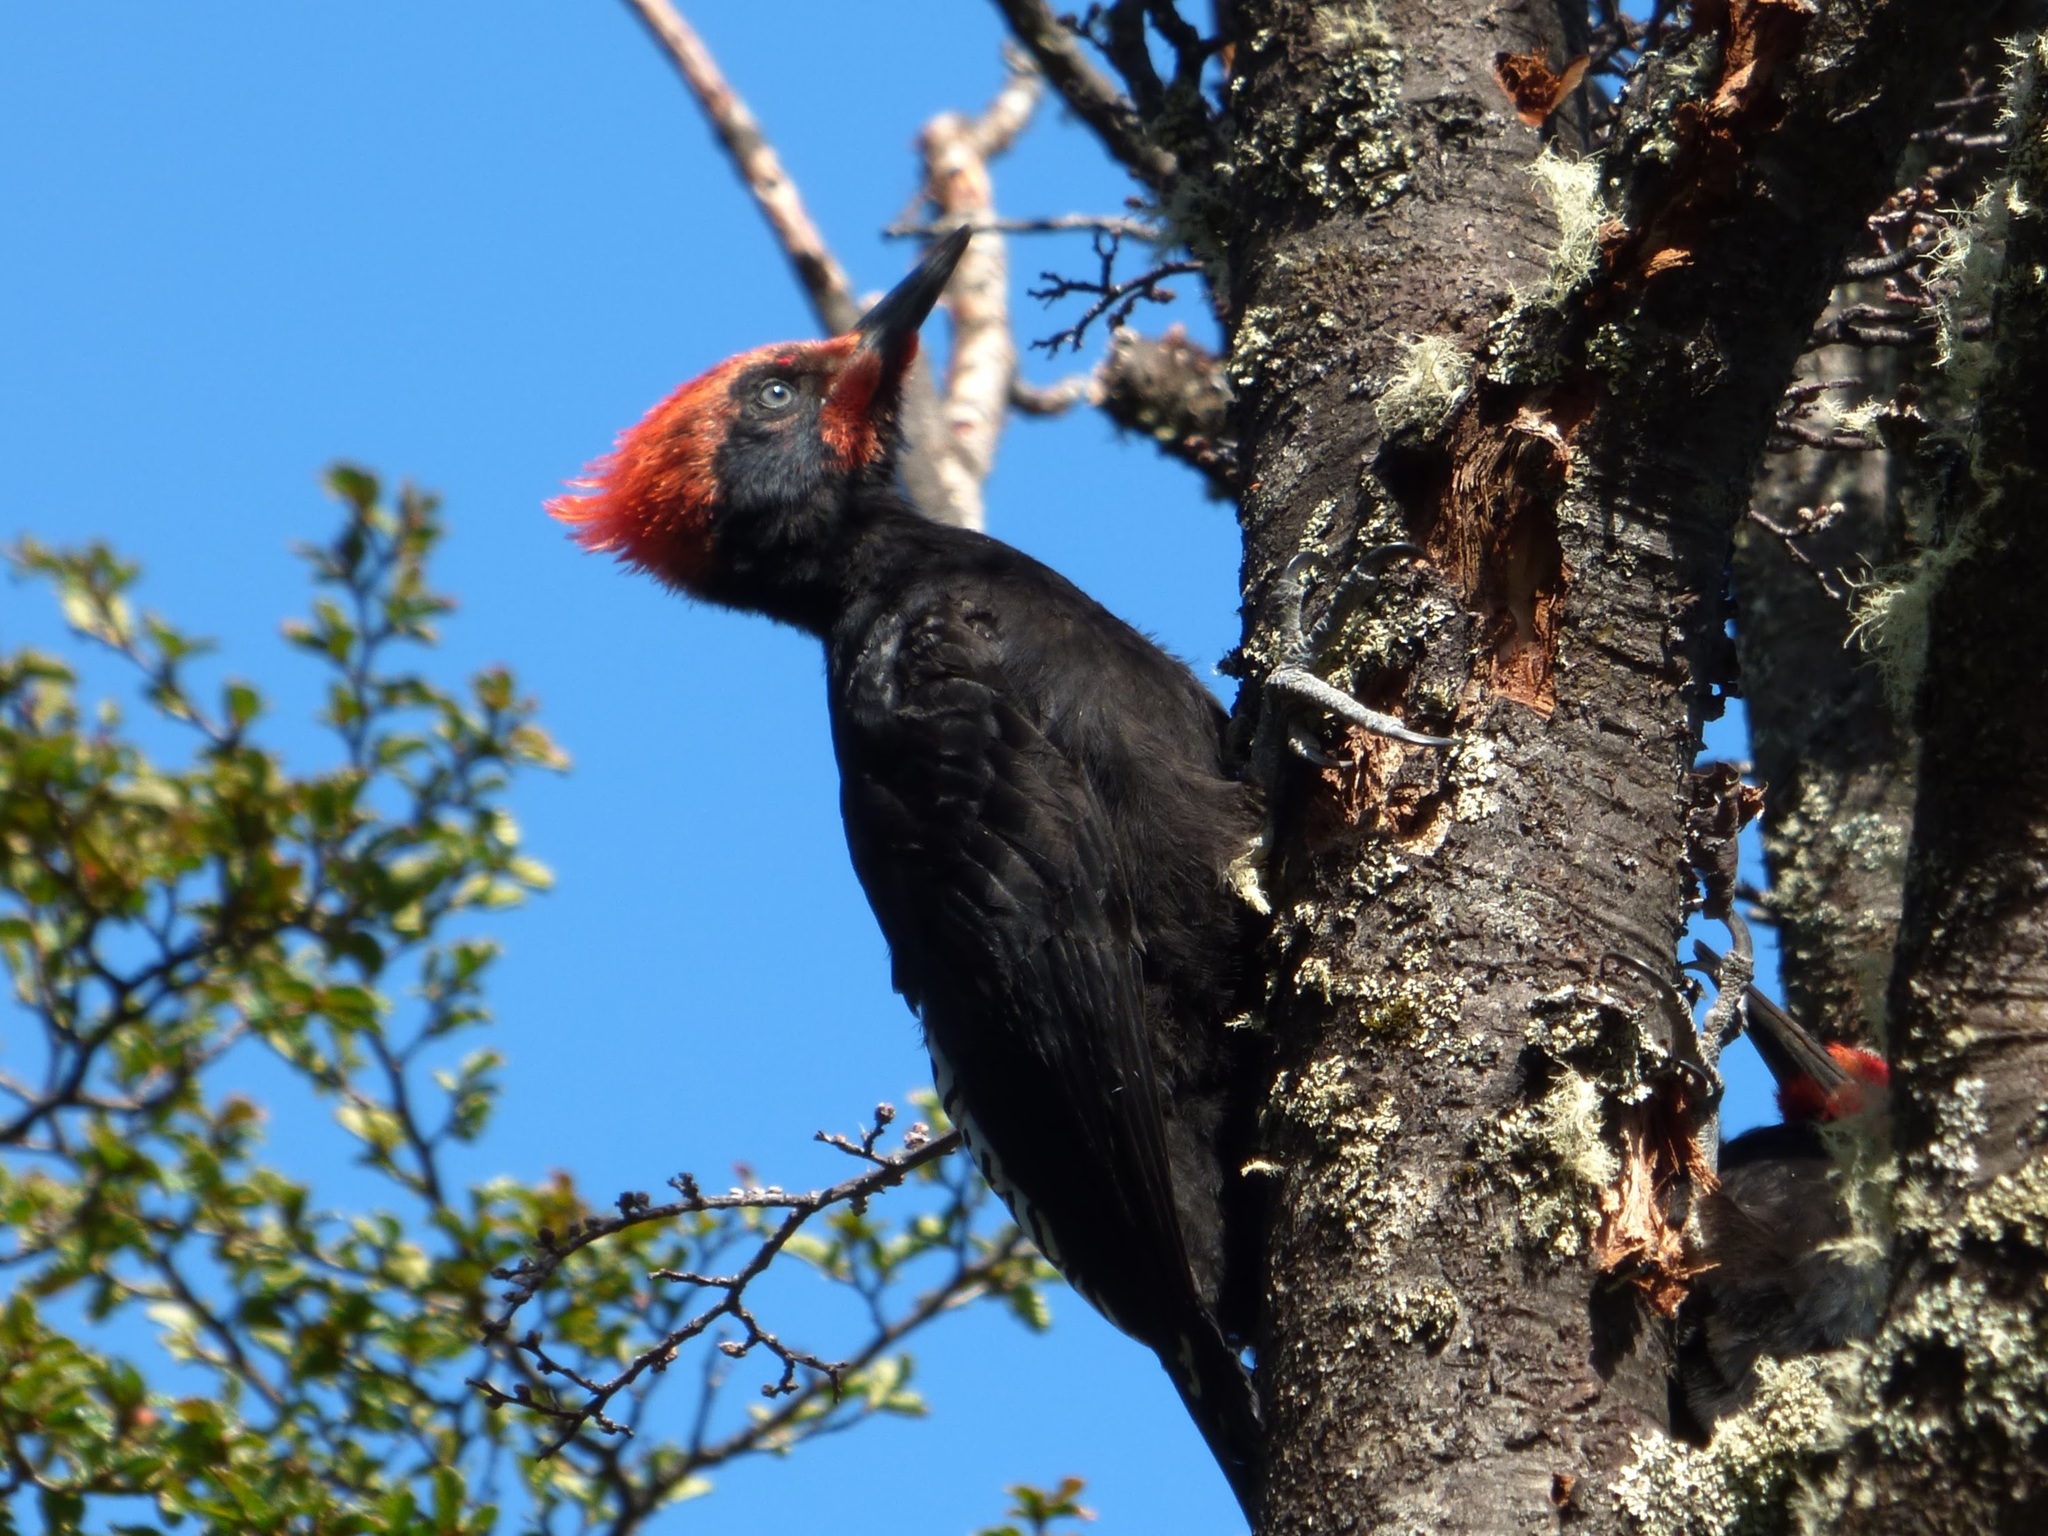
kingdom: Animalia
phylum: Chordata
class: Aves
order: Piciformes
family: Picidae
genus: Campephilus
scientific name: Campephilus magellanicus
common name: Magellanic woodpecker
